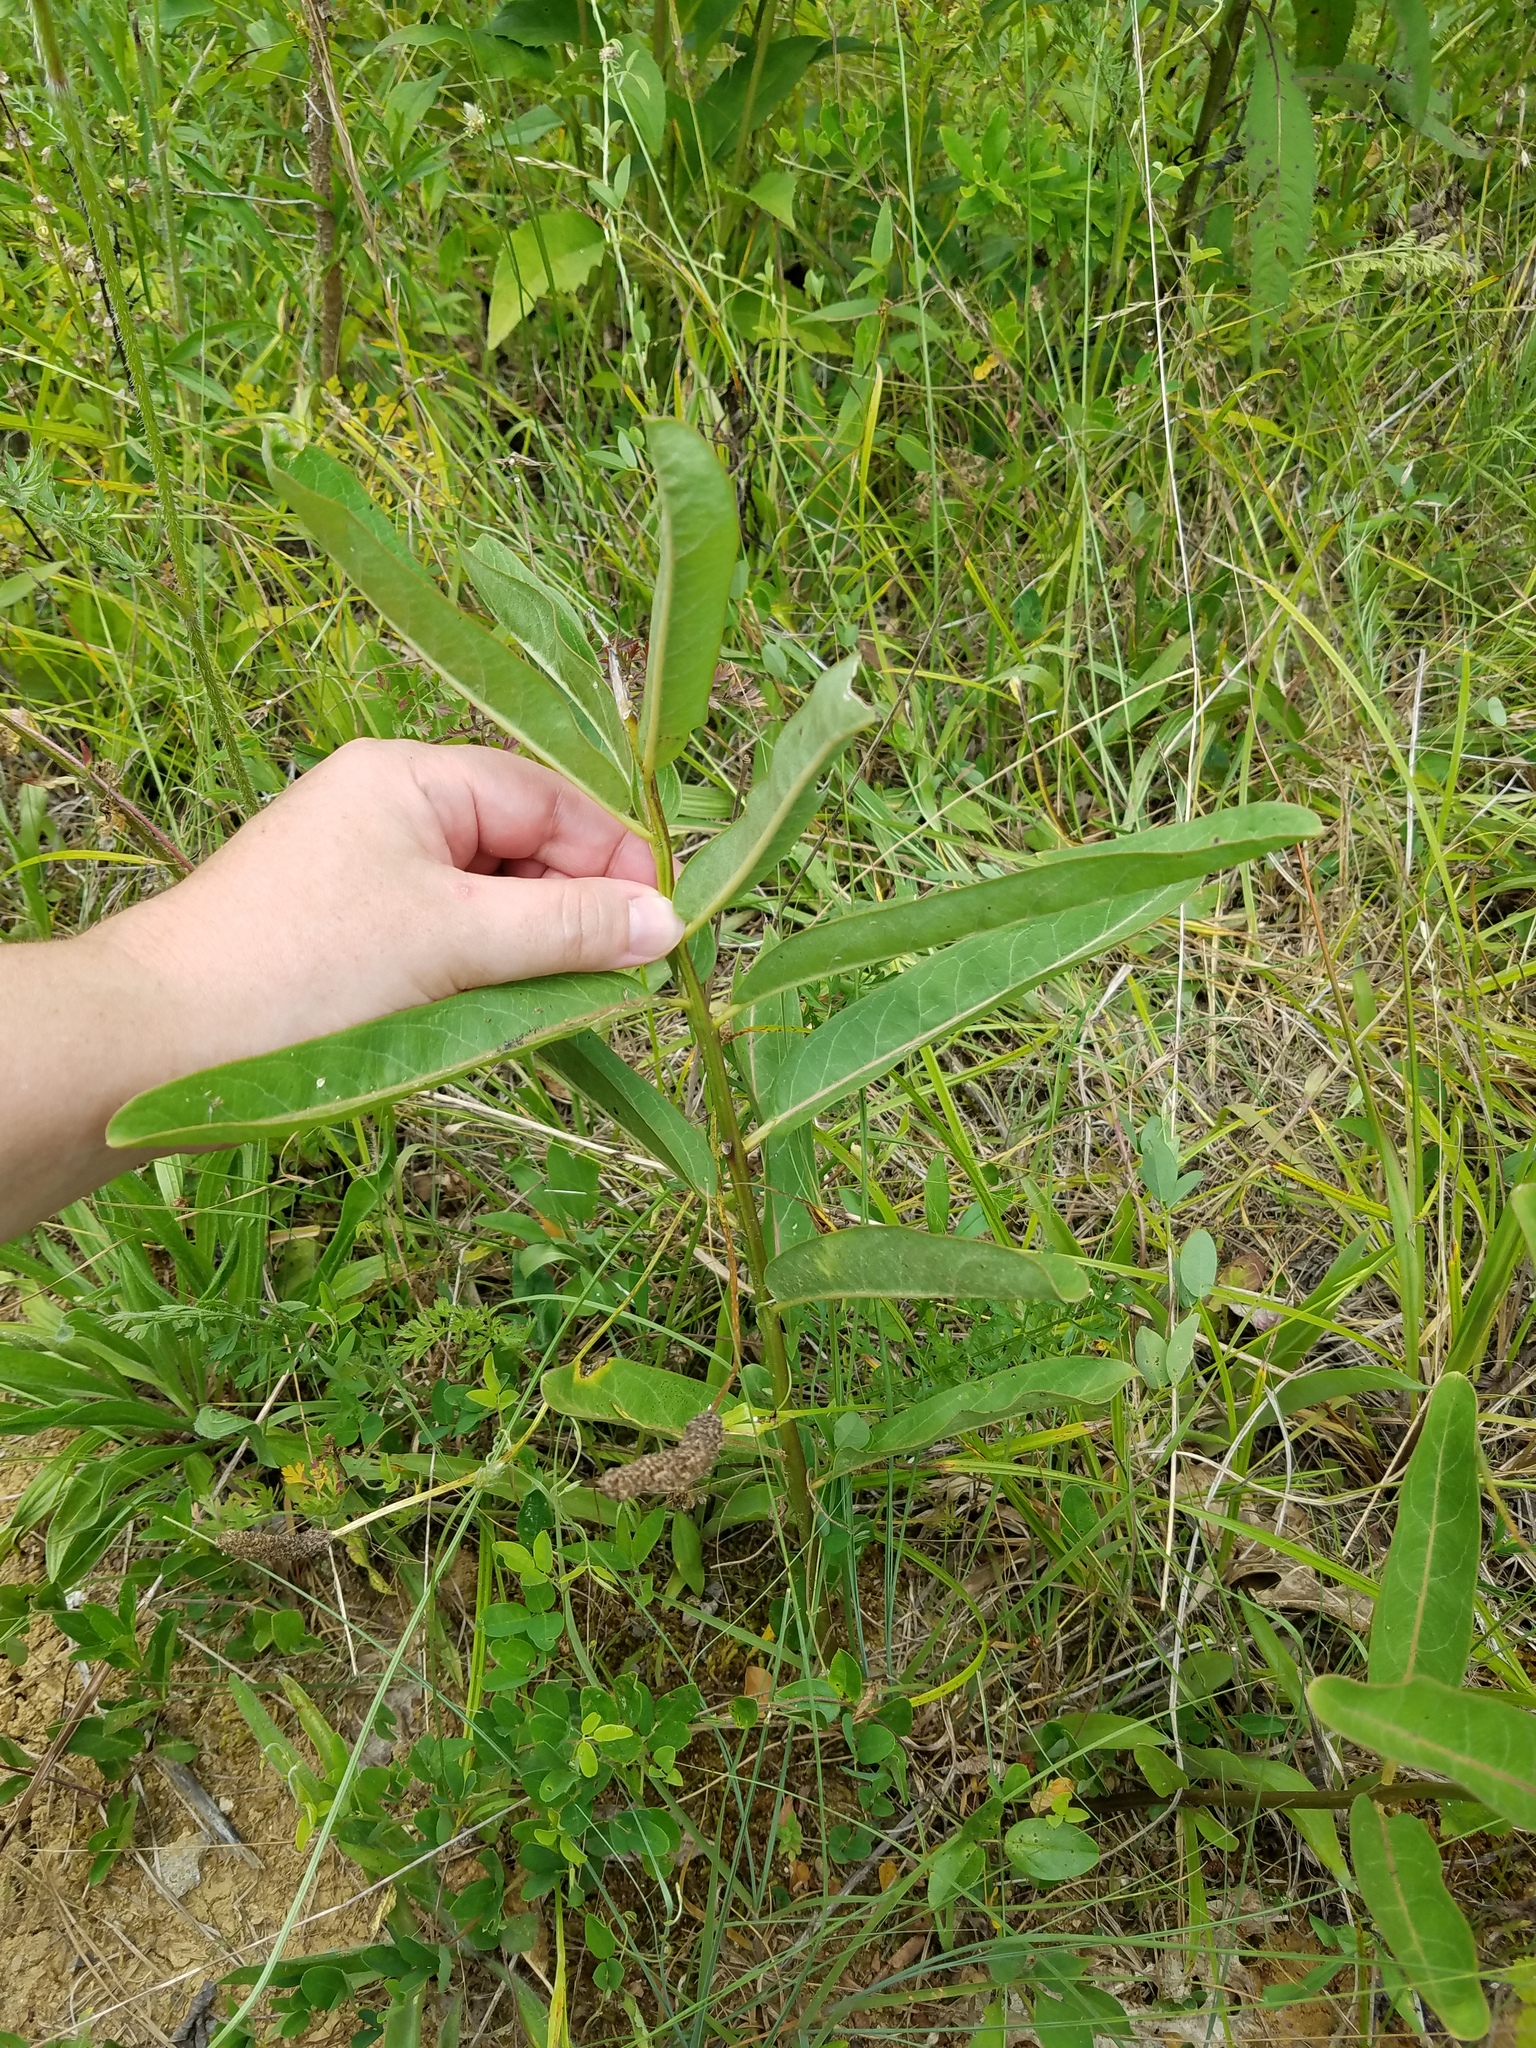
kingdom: Plantae
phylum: Tracheophyta
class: Magnoliopsida
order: Gentianales
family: Apocynaceae
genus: Asclepias
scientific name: Asclepias viridis
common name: Antelope-horns
